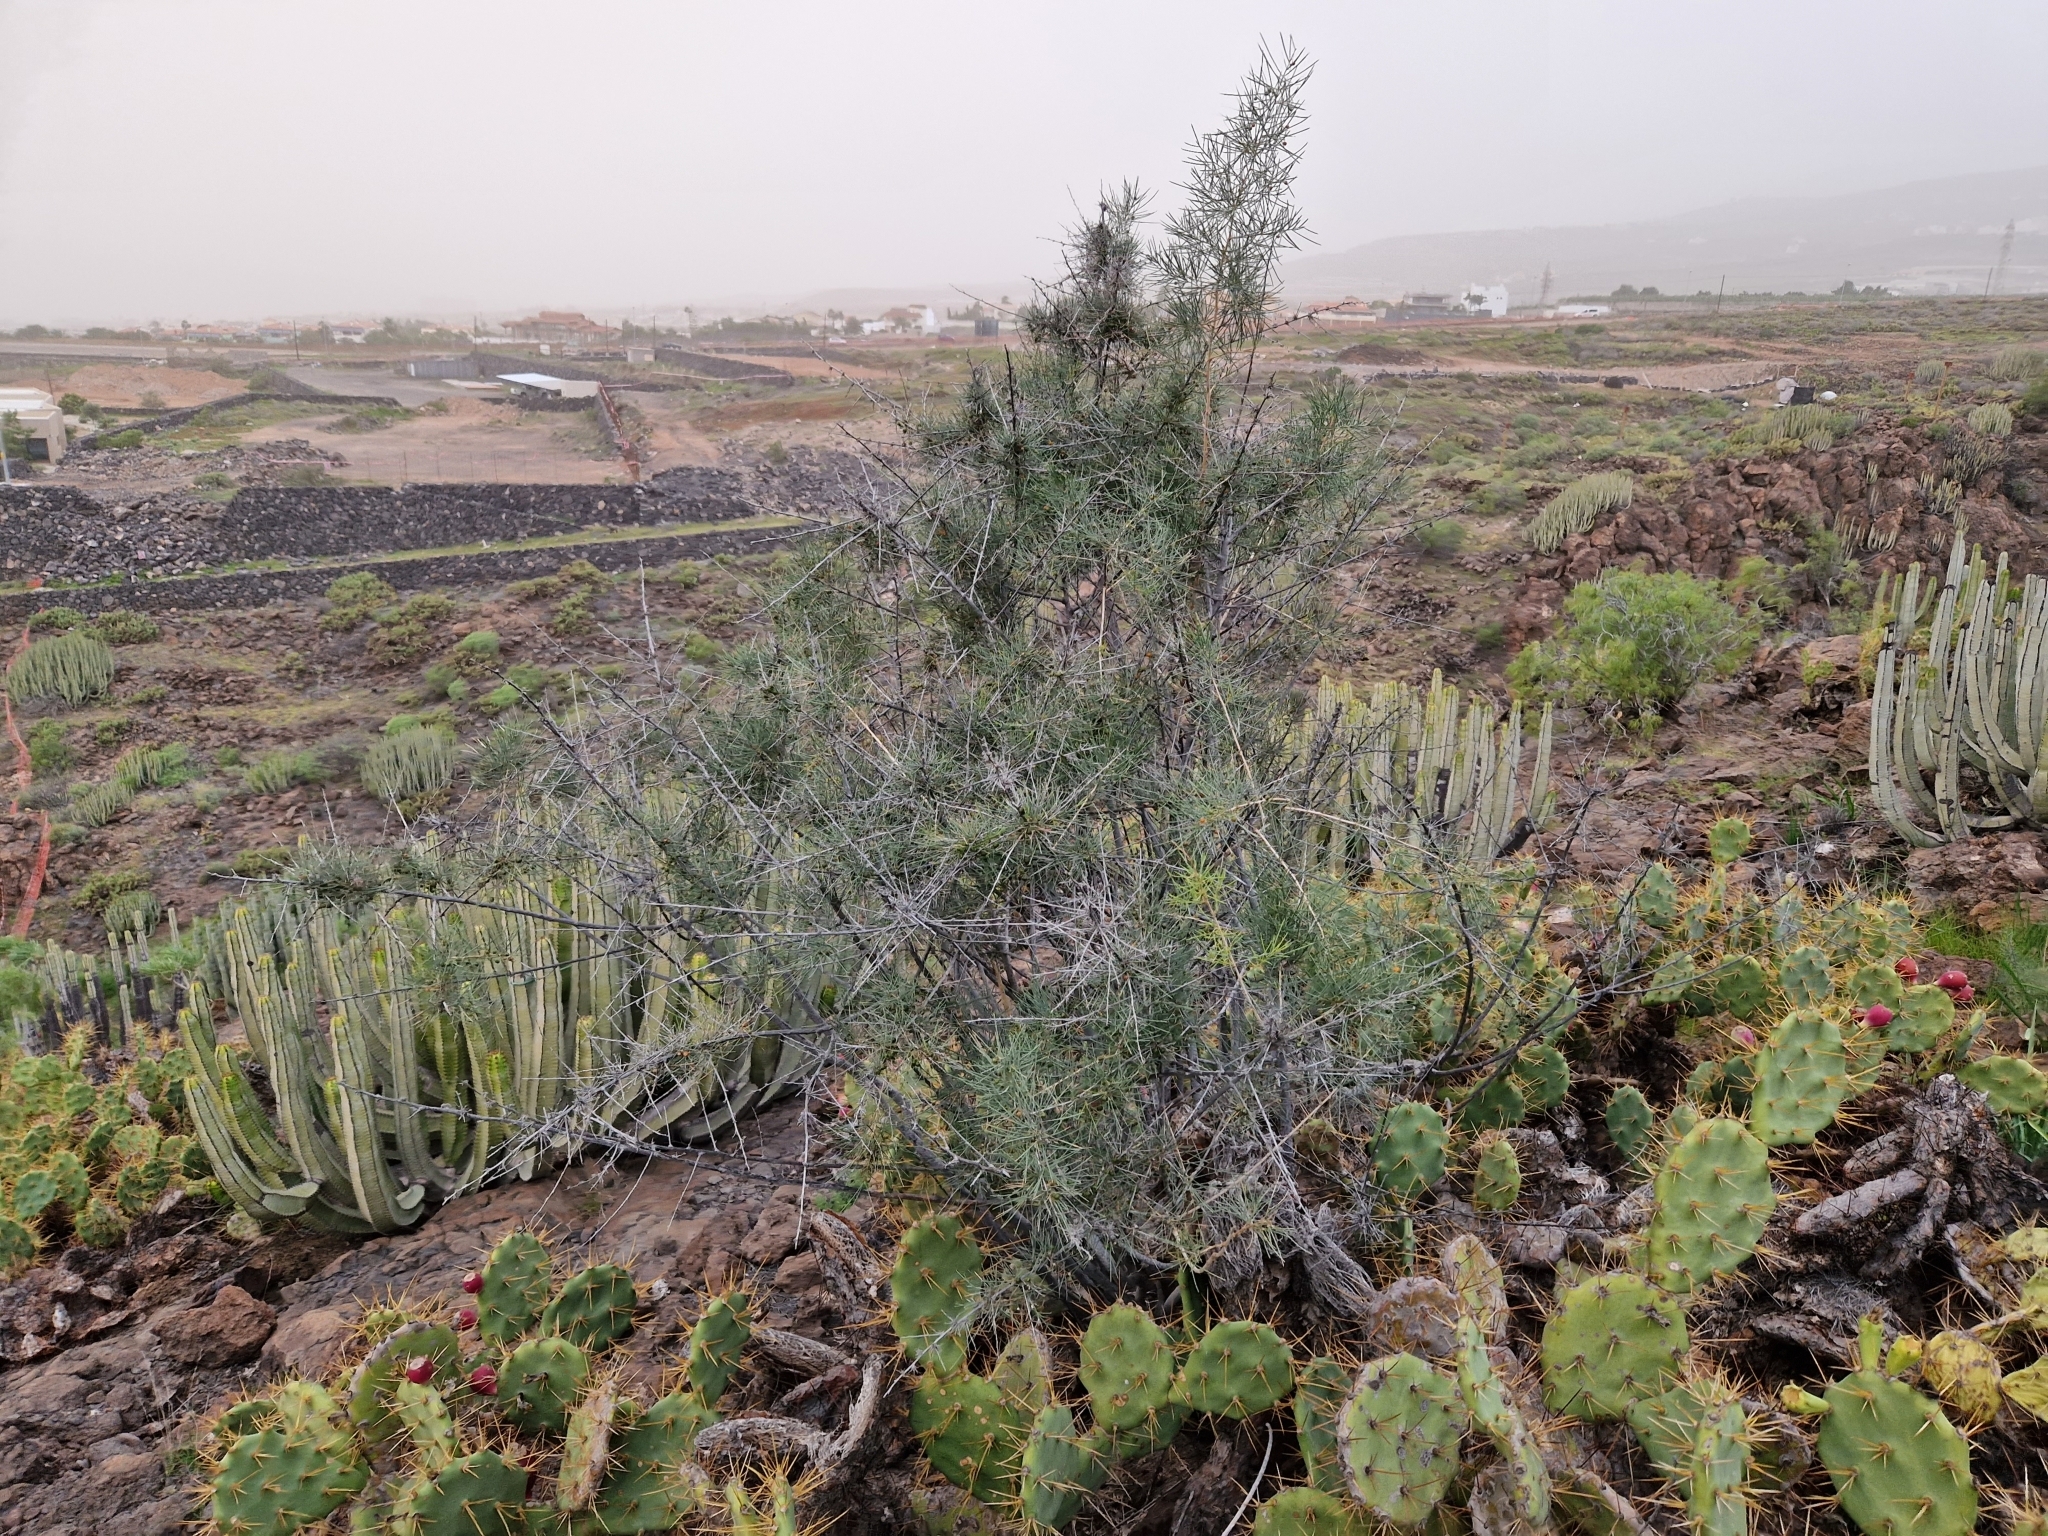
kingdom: Plantae
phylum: Tracheophyta
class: Liliopsida
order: Asparagales
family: Asparagaceae
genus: Asparagus
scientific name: Asparagus arborescens
